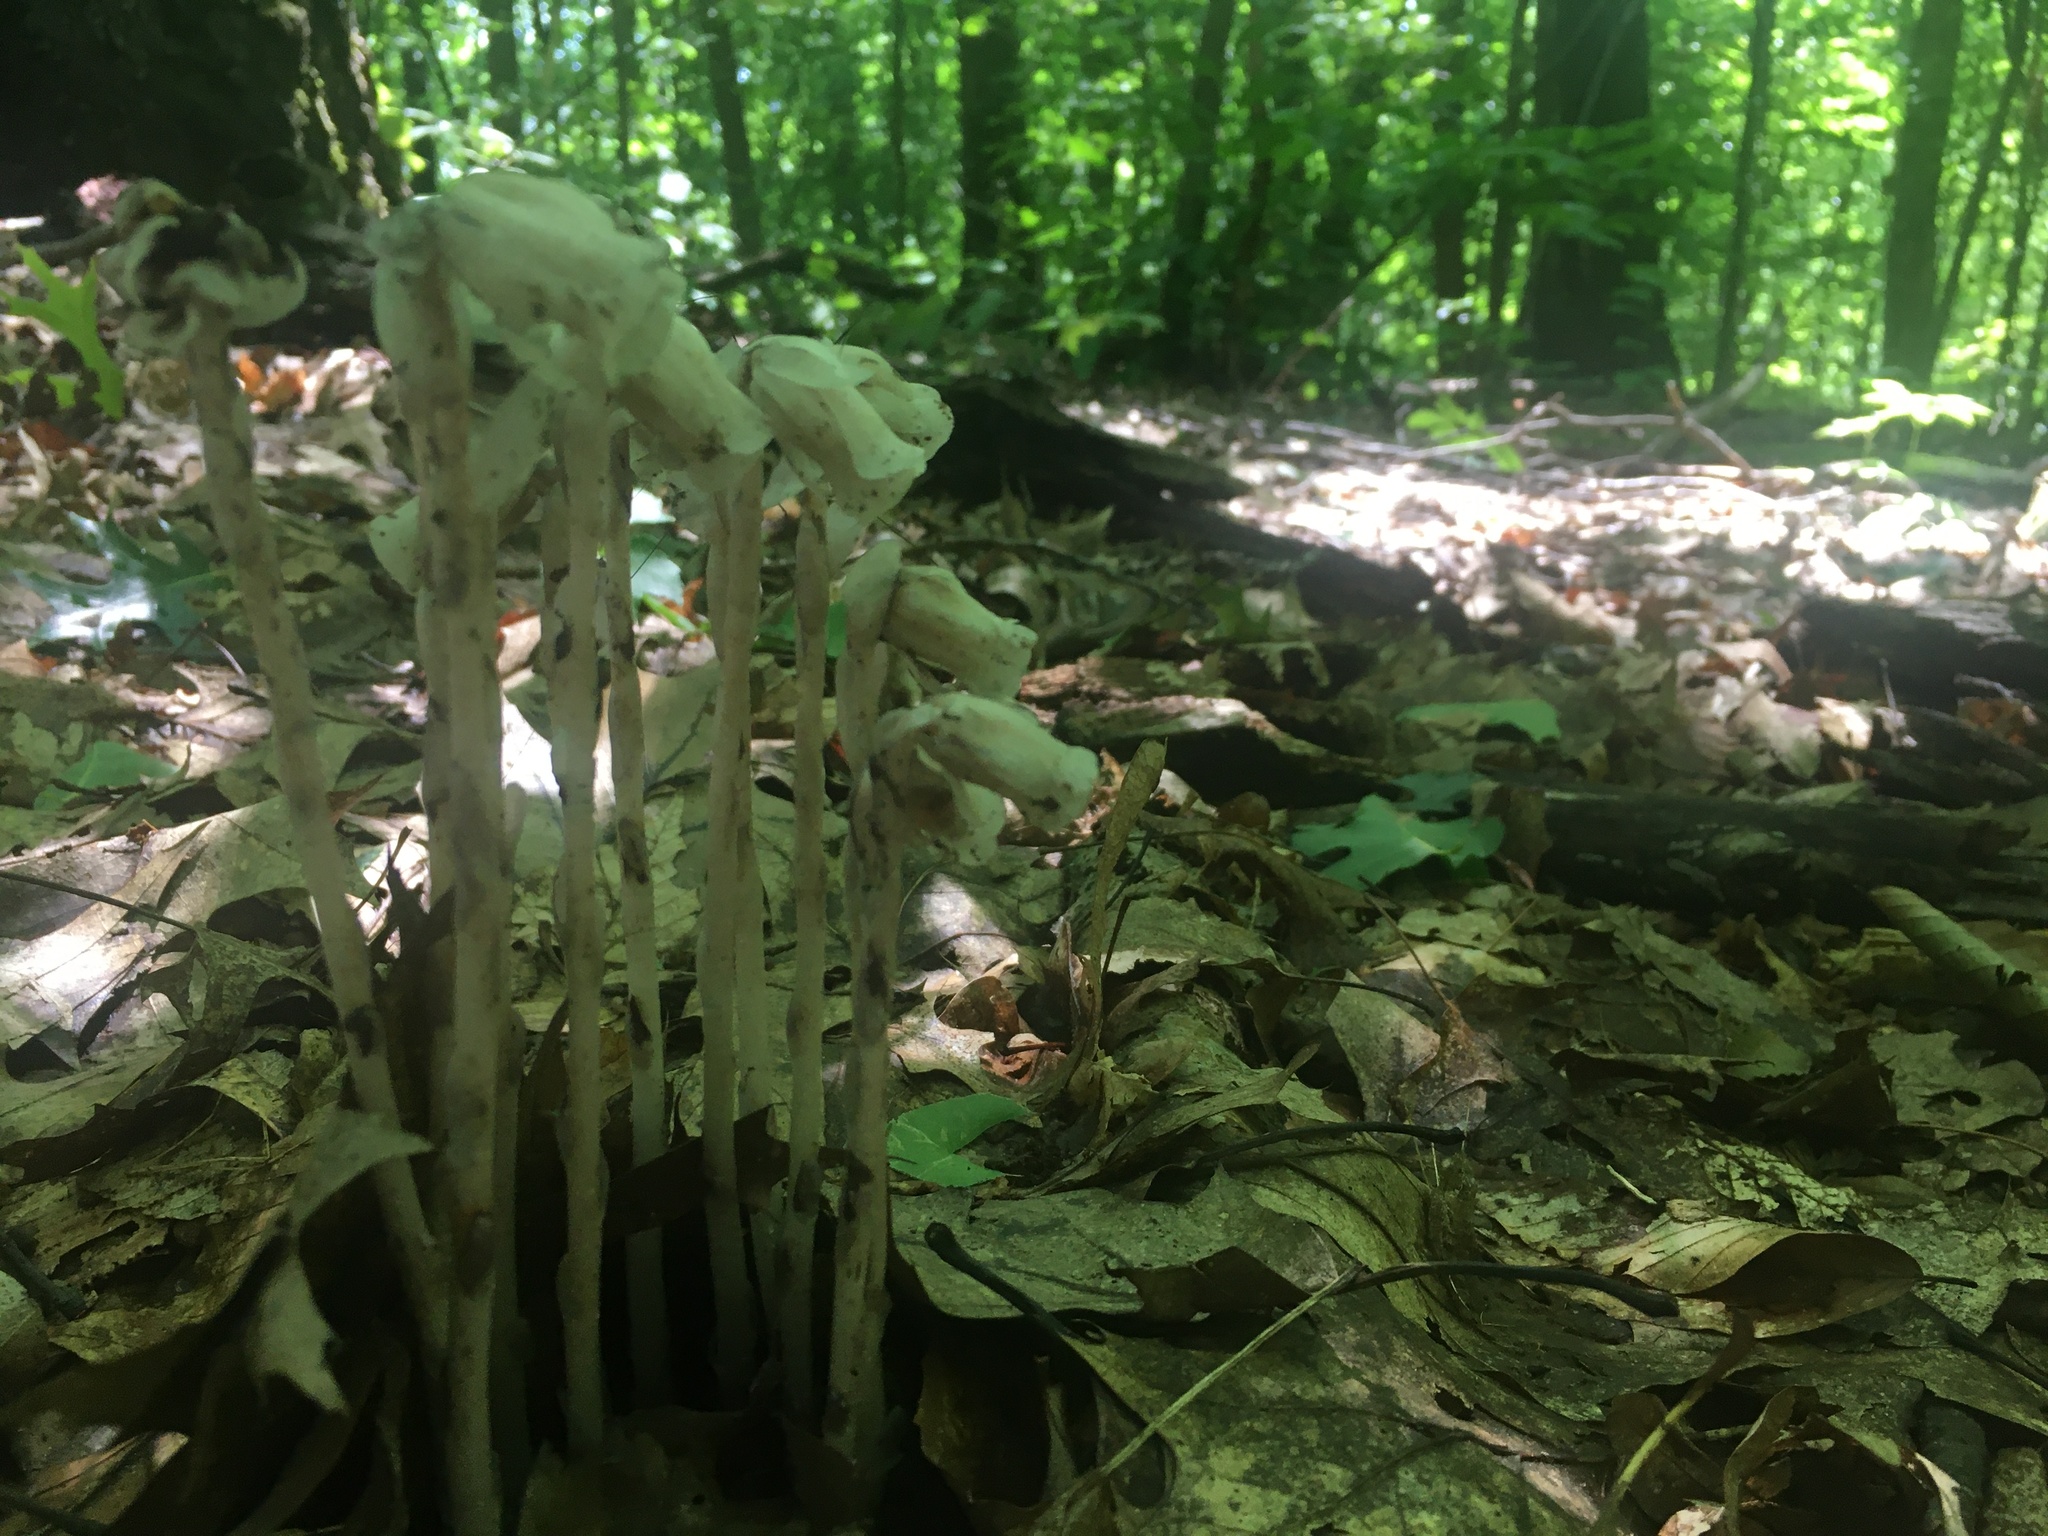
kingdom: Plantae
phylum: Tracheophyta
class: Magnoliopsida
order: Ericales
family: Ericaceae
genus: Monotropa
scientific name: Monotropa uniflora
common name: Convulsion root
